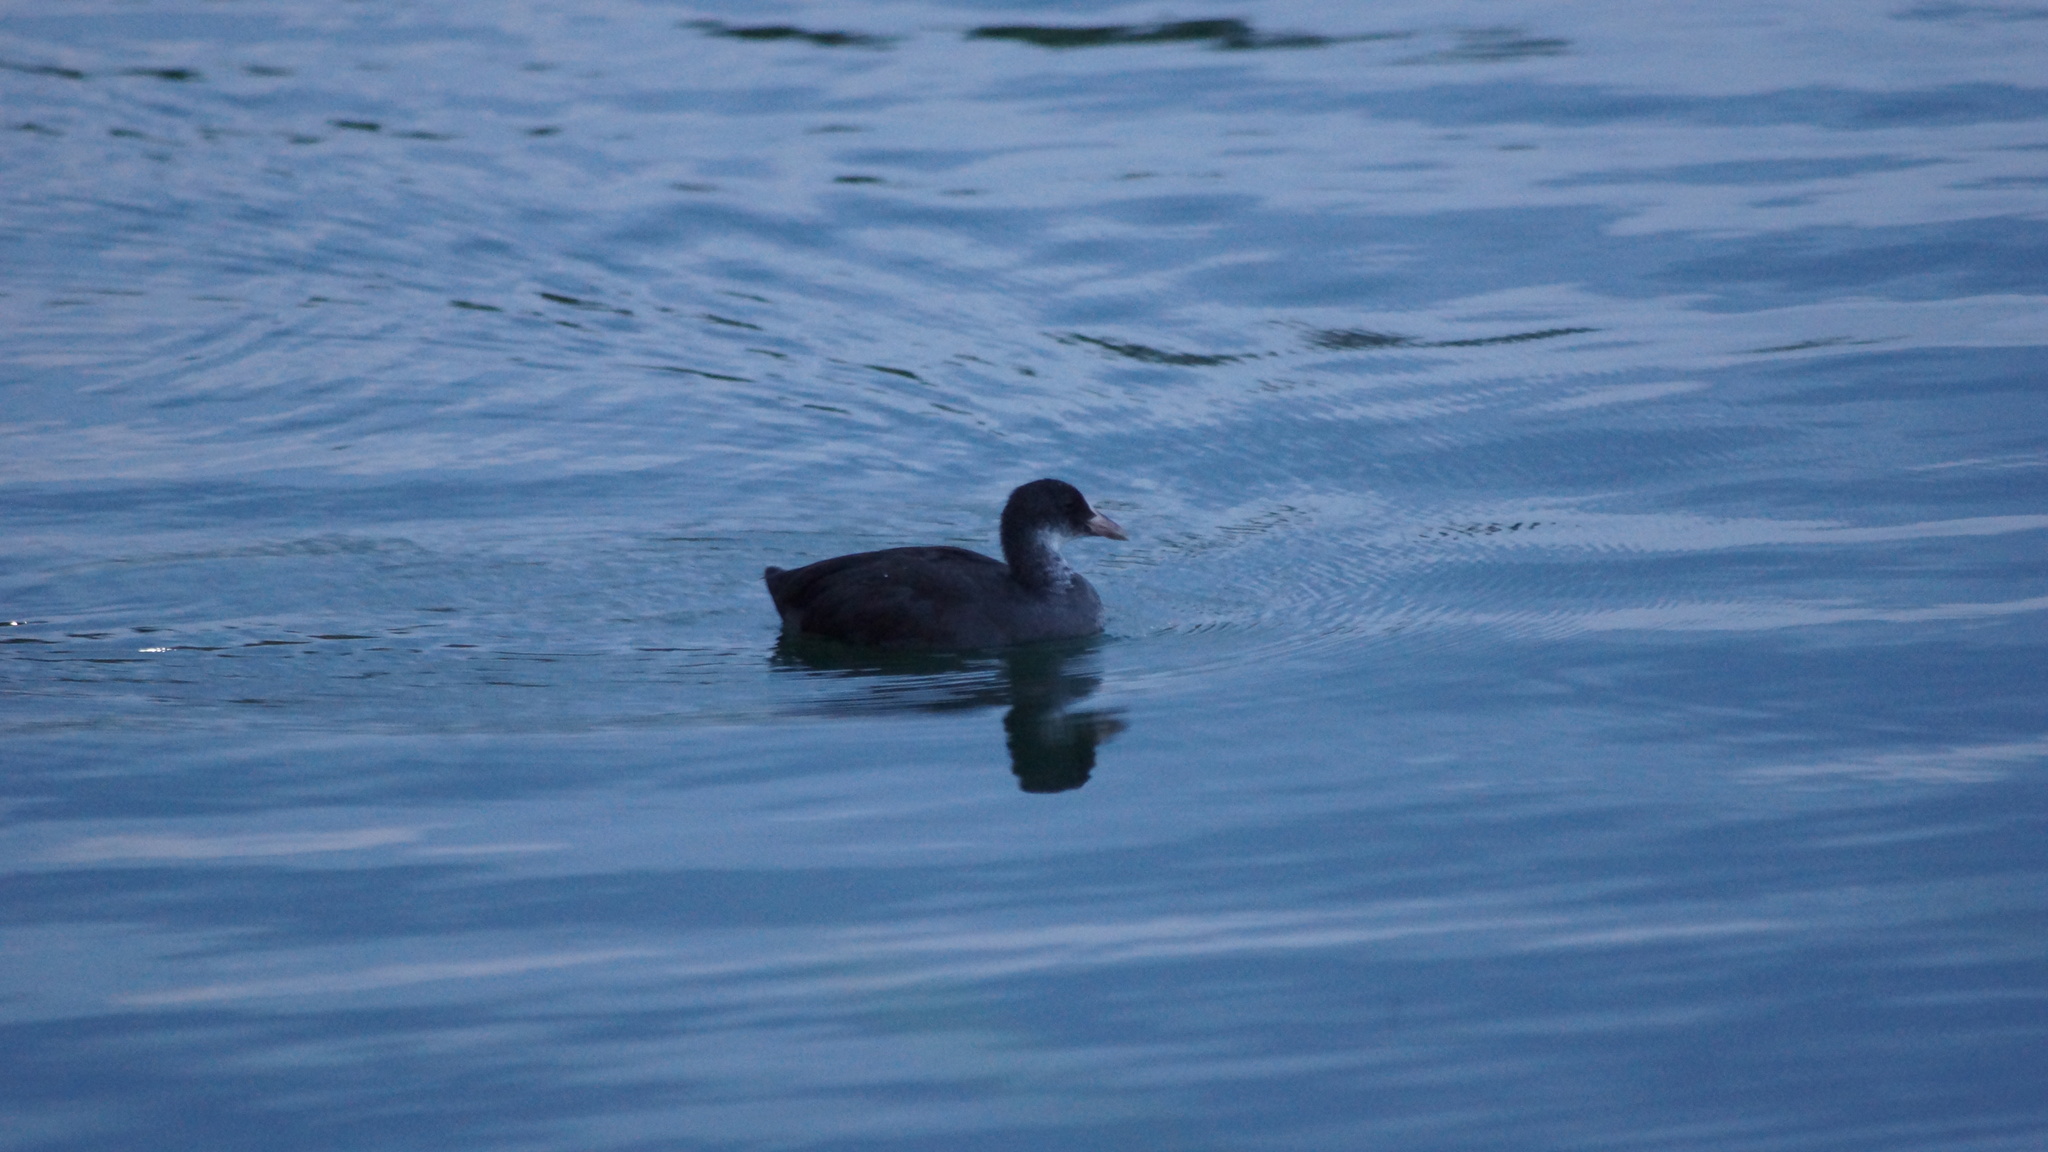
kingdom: Animalia
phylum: Chordata
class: Aves
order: Gruiformes
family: Rallidae
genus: Fulica
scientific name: Fulica atra
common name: Eurasian coot
